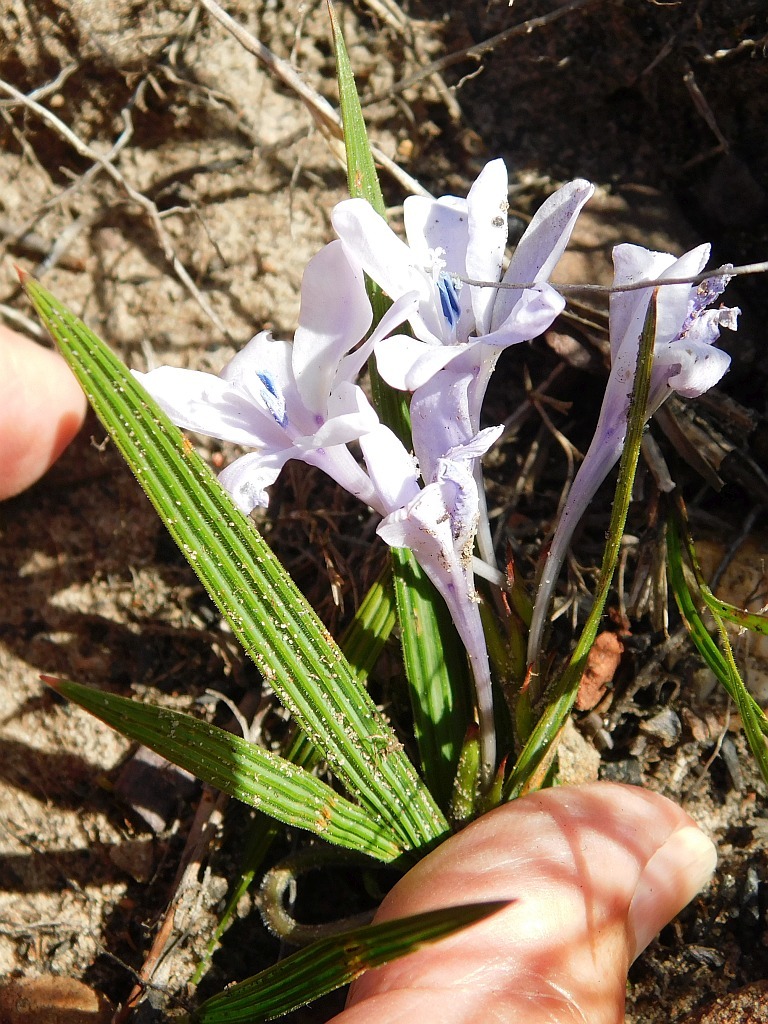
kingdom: Plantae
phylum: Tracheophyta
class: Liliopsida
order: Asparagales
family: Iridaceae
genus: Babiana
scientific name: Babiana nervosa
